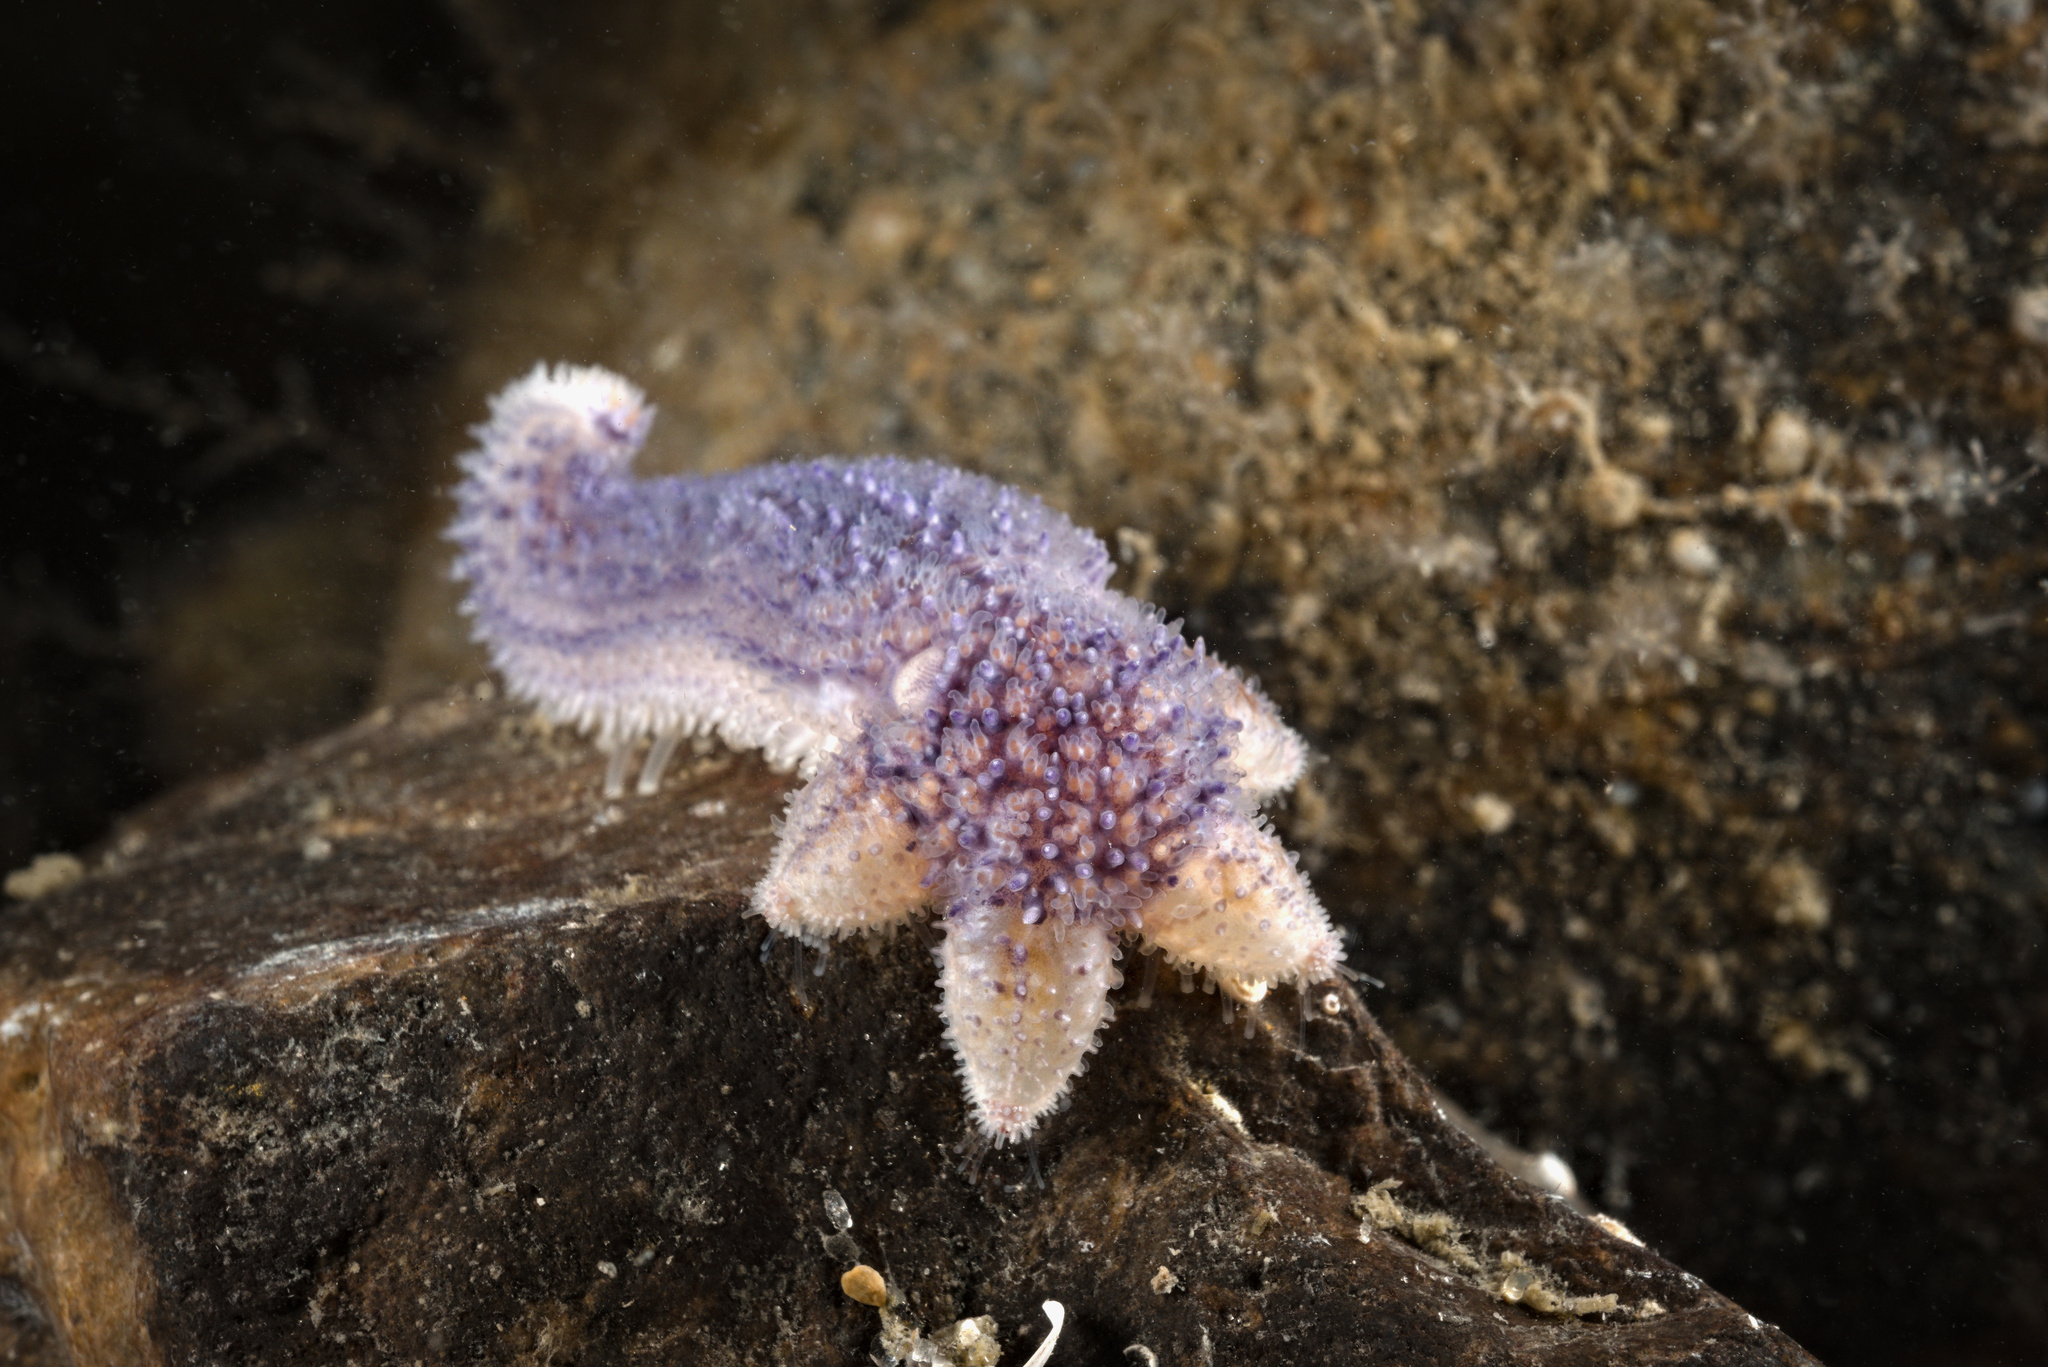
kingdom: Animalia
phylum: Echinodermata
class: Asteroidea
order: Forcipulatida
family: Asteriidae
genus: Asterias
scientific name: Asterias rubens
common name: Common starfish
